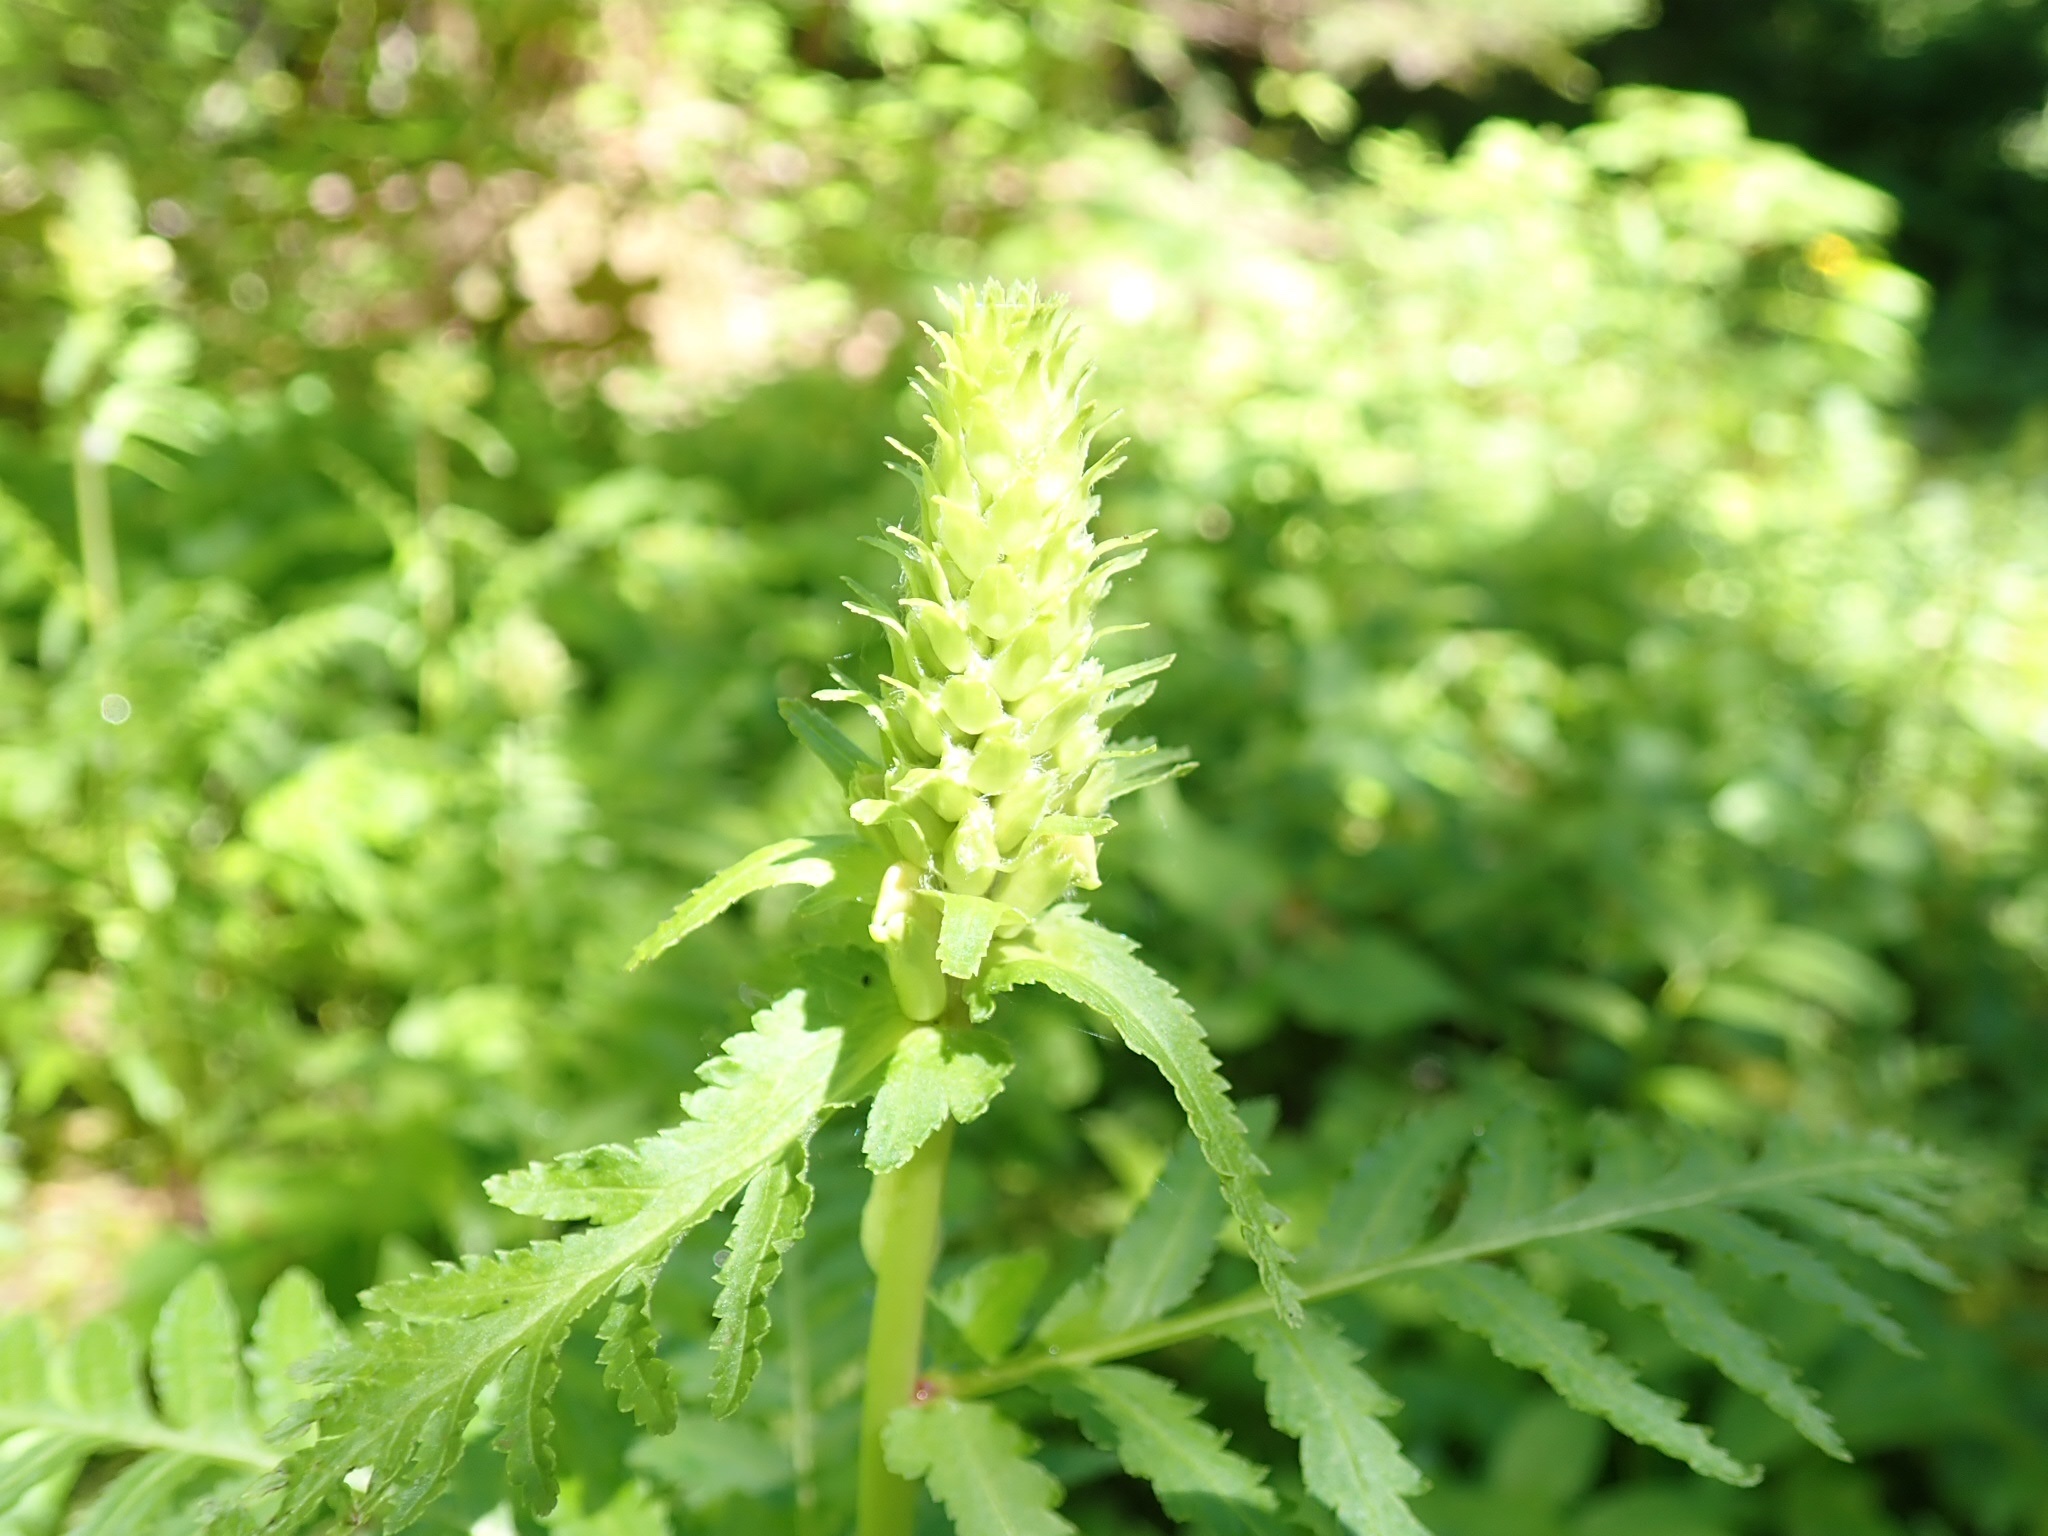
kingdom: Plantae
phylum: Tracheophyta
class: Magnoliopsida
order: Lamiales
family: Orobanchaceae
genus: Pedicularis
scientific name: Pedicularis bracteosa
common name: Bracted lousewort
